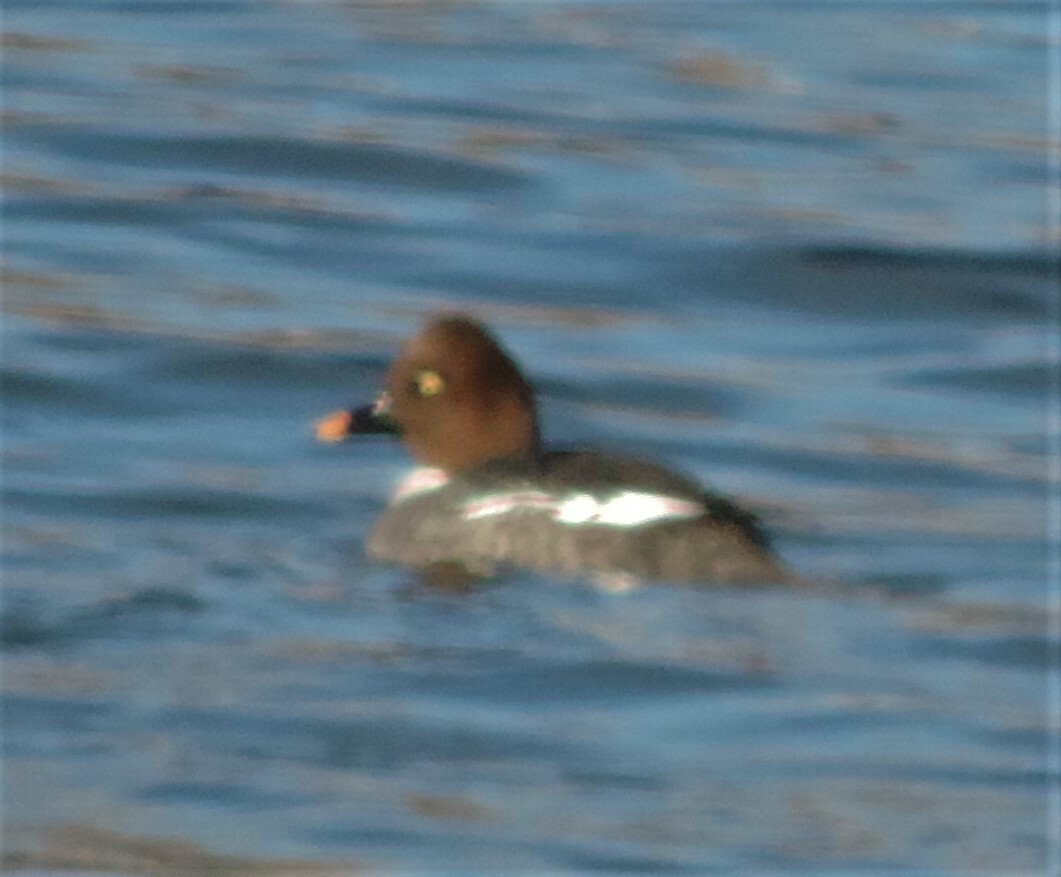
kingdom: Animalia
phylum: Chordata
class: Aves
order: Anseriformes
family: Anatidae
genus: Bucephala
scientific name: Bucephala clangula
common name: Common goldeneye
